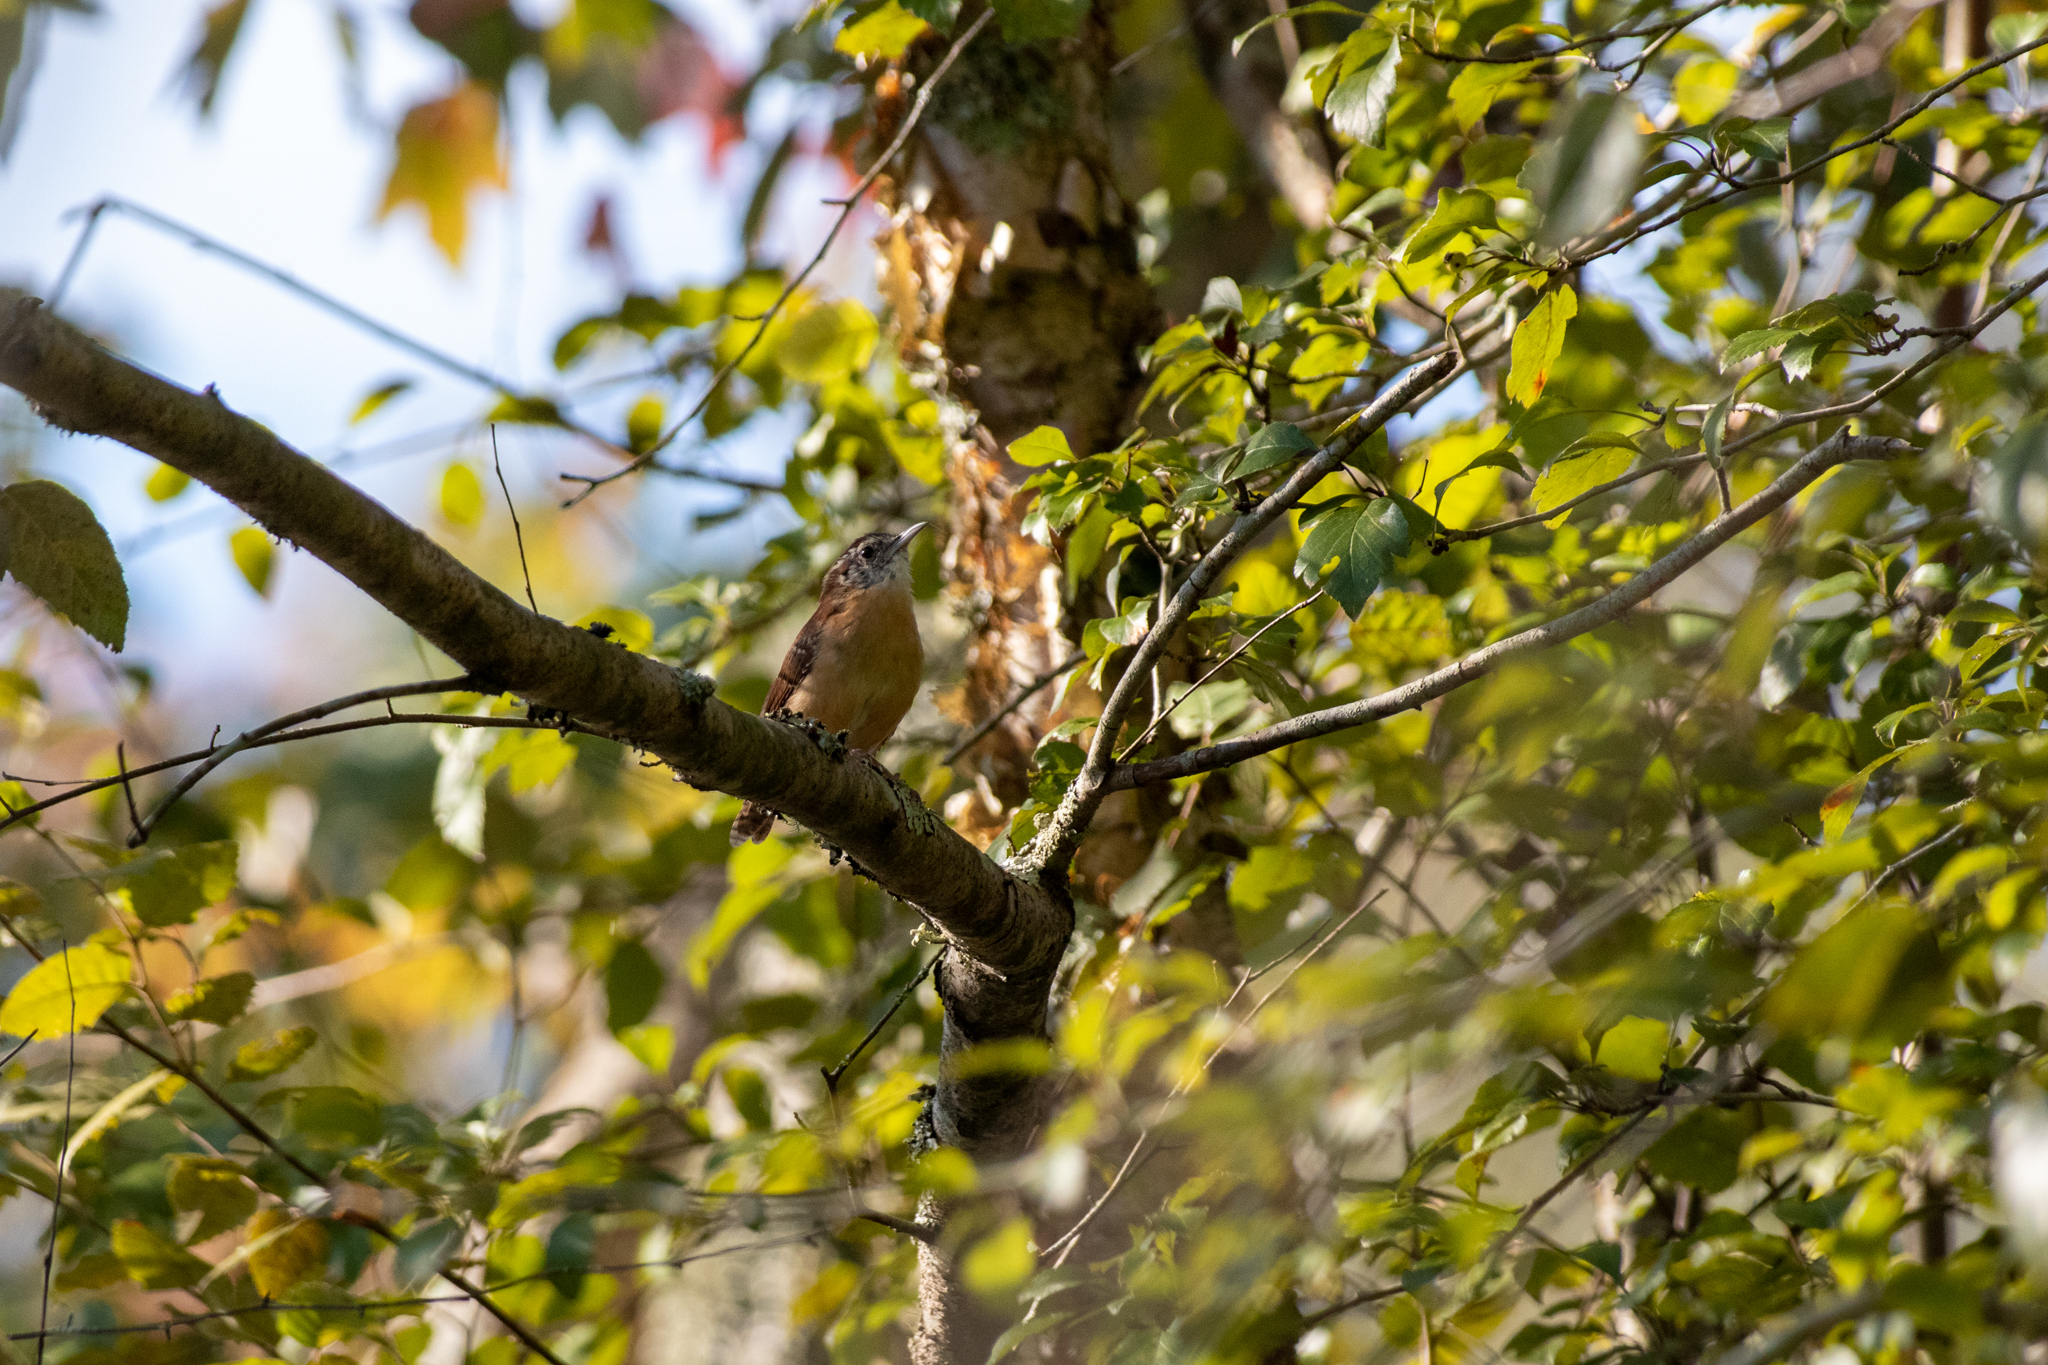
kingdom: Animalia
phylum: Chordata
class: Aves
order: Passeriformes
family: Troglodytidae
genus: Thryothorus
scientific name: Thryothorus ludovicianus
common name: Carolina wren
